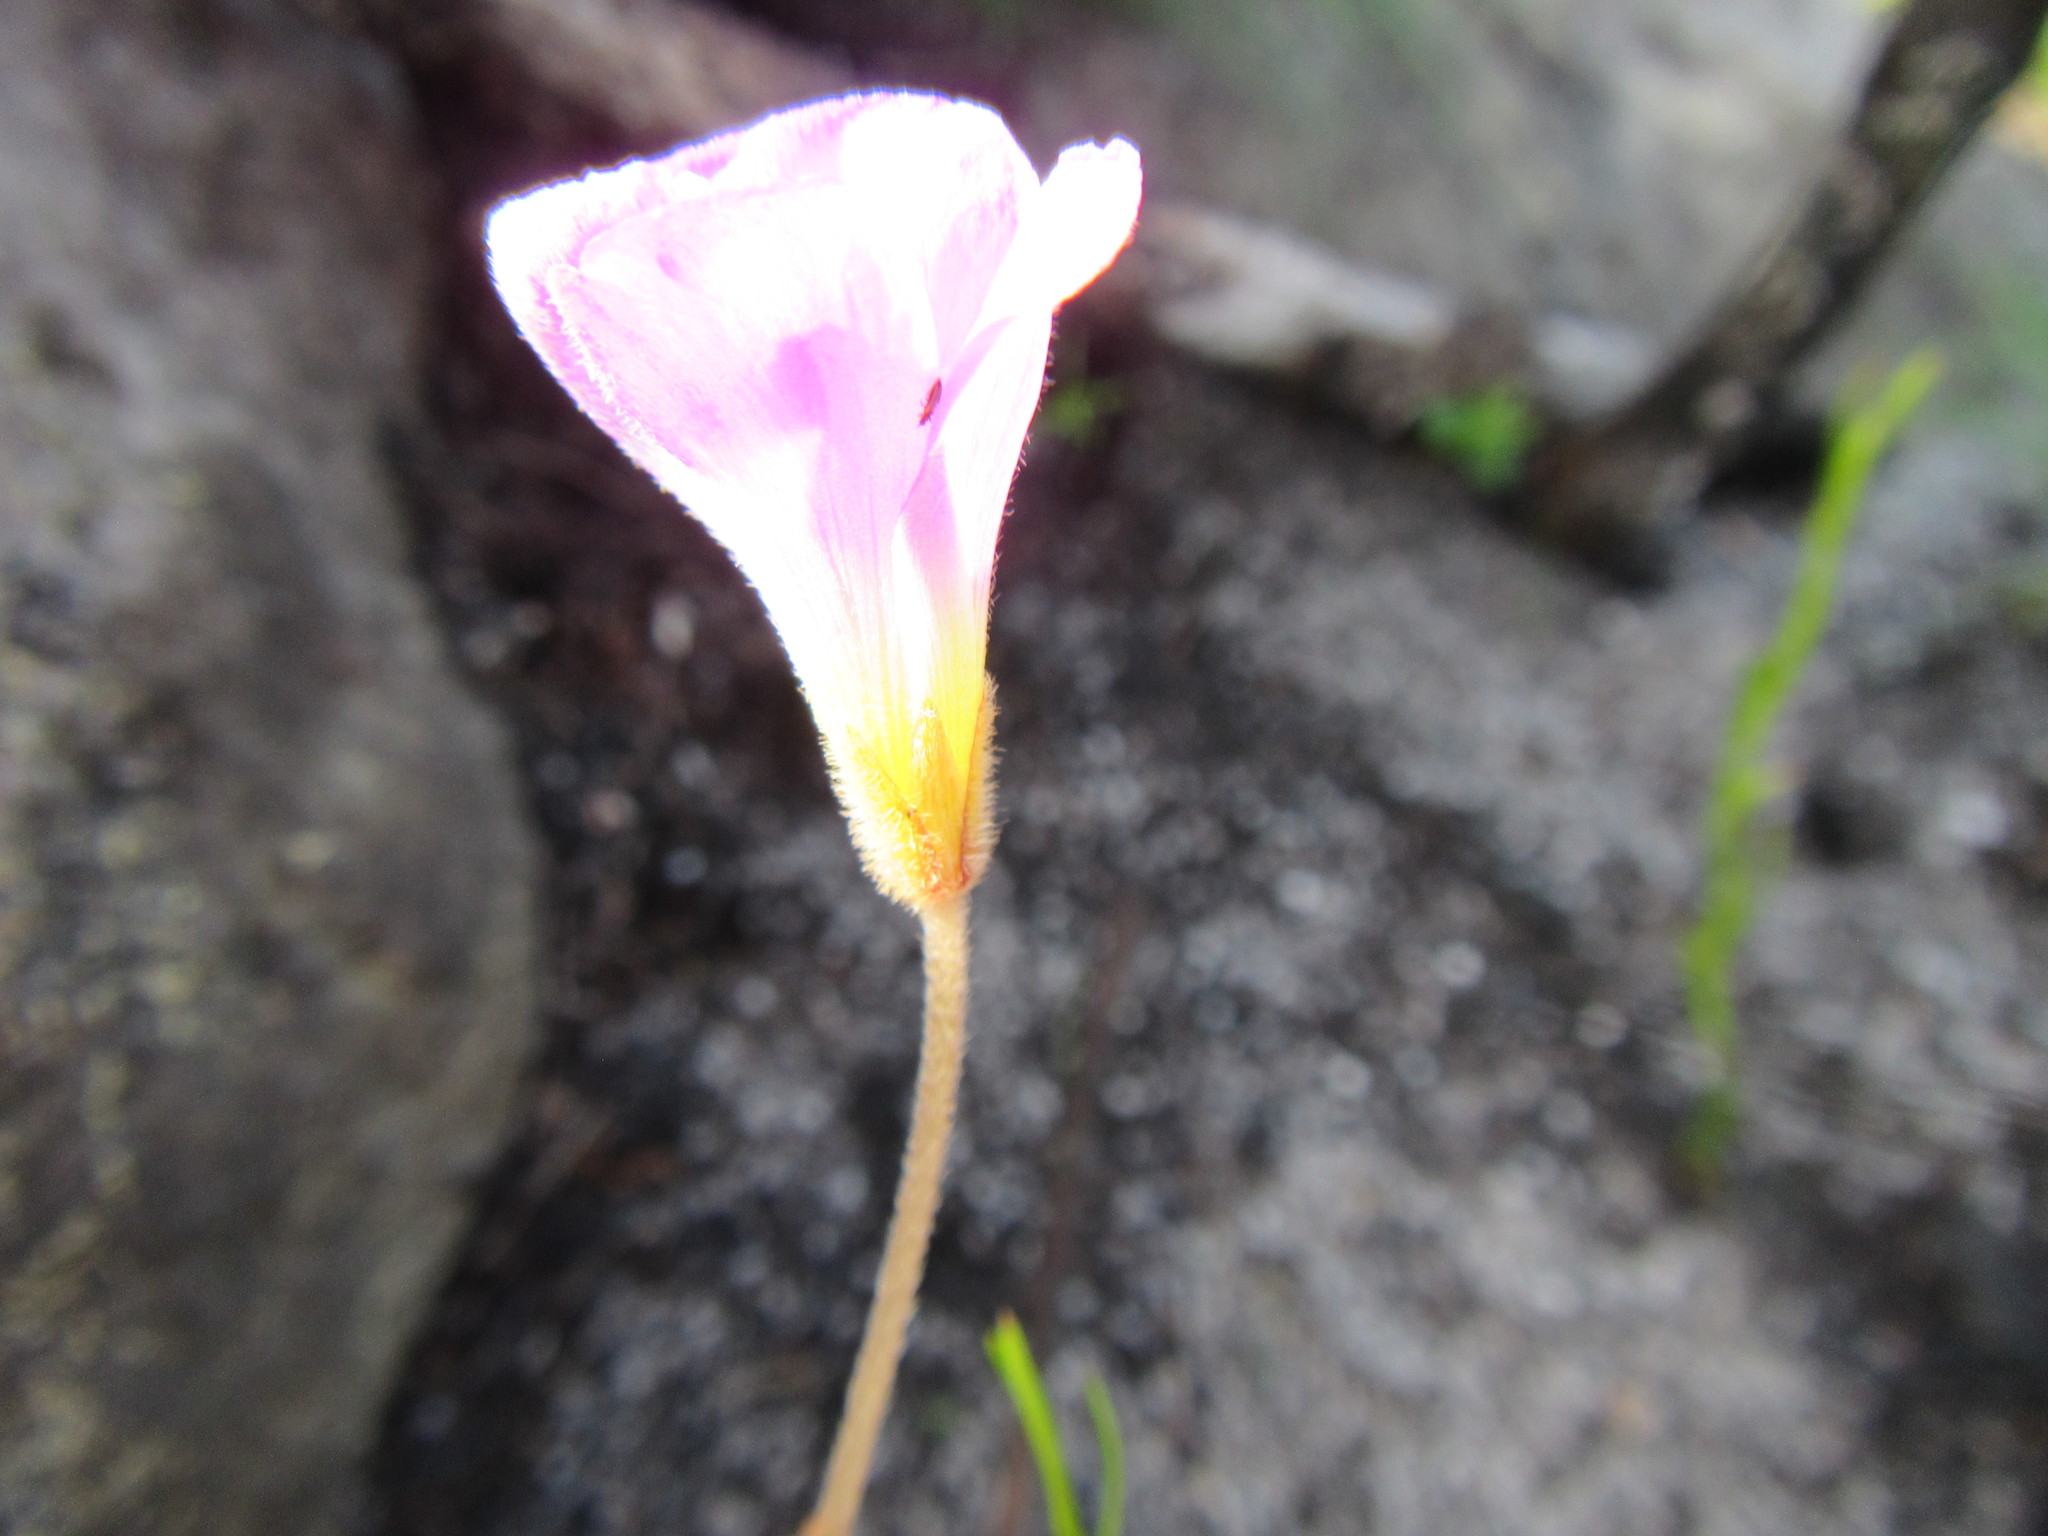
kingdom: Plantae
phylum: Tracheophyta
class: Magnoliopsida
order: Oxalidales
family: Oxalidaceae
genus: Oxalis
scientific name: Oxalis truncatula
